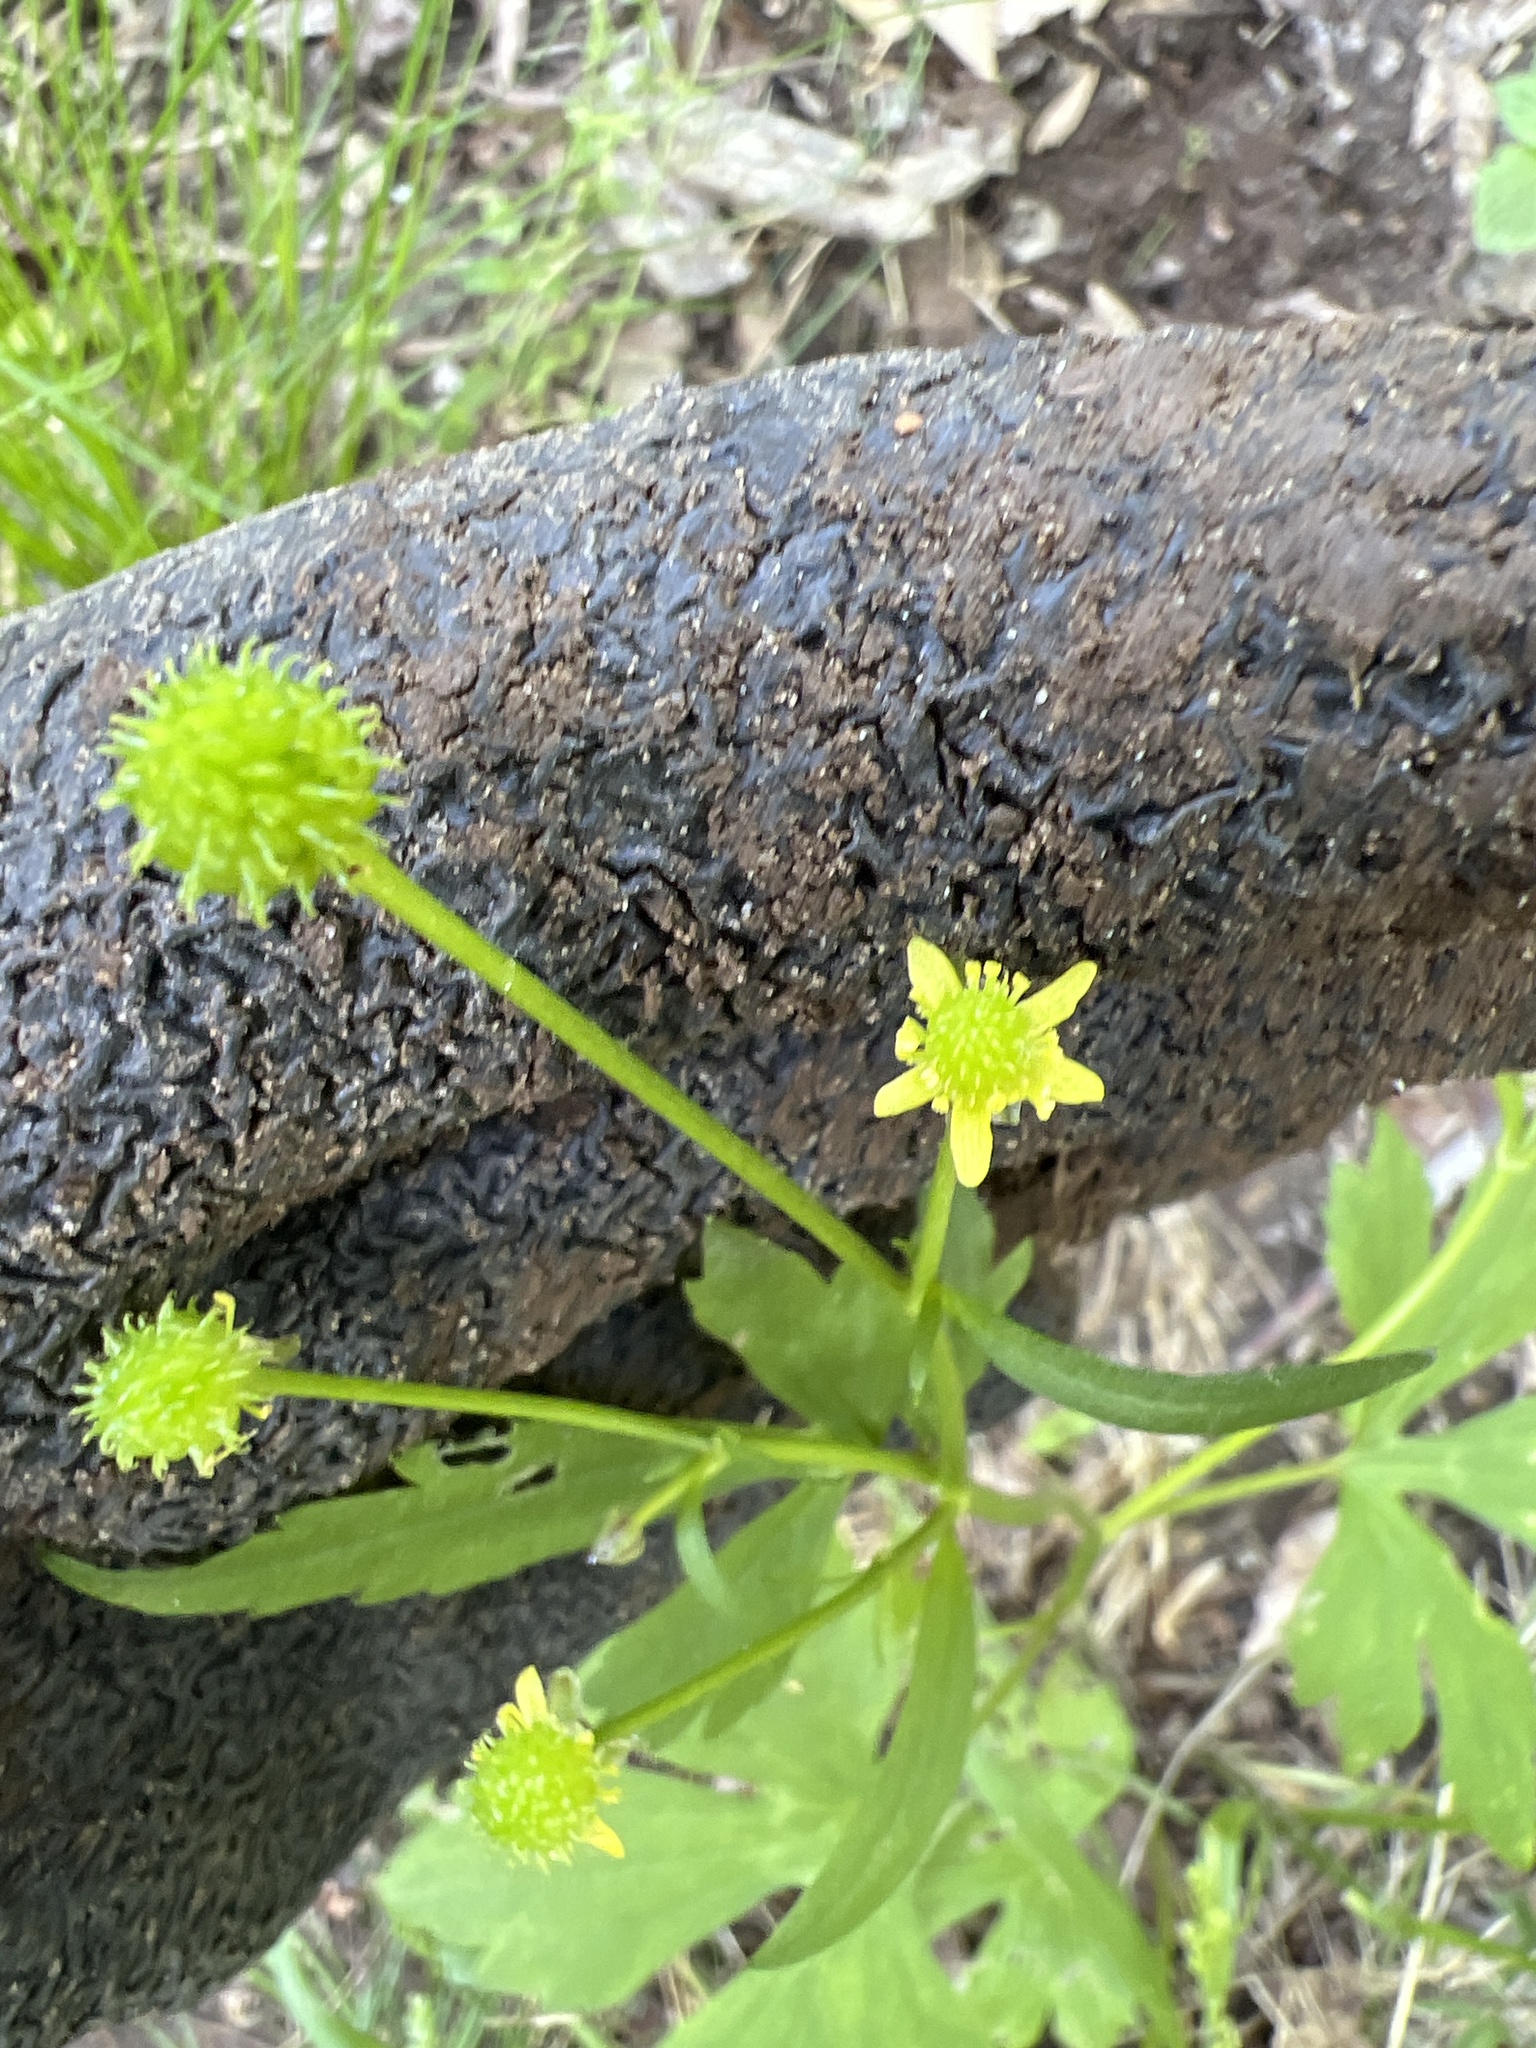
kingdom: Plantae
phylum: Tracheophyta
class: Magnoliopsida
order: Ranunculales
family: Ranunculaceae
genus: Ranunculus
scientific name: Ranunculus recurvatus
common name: Blisterwort
